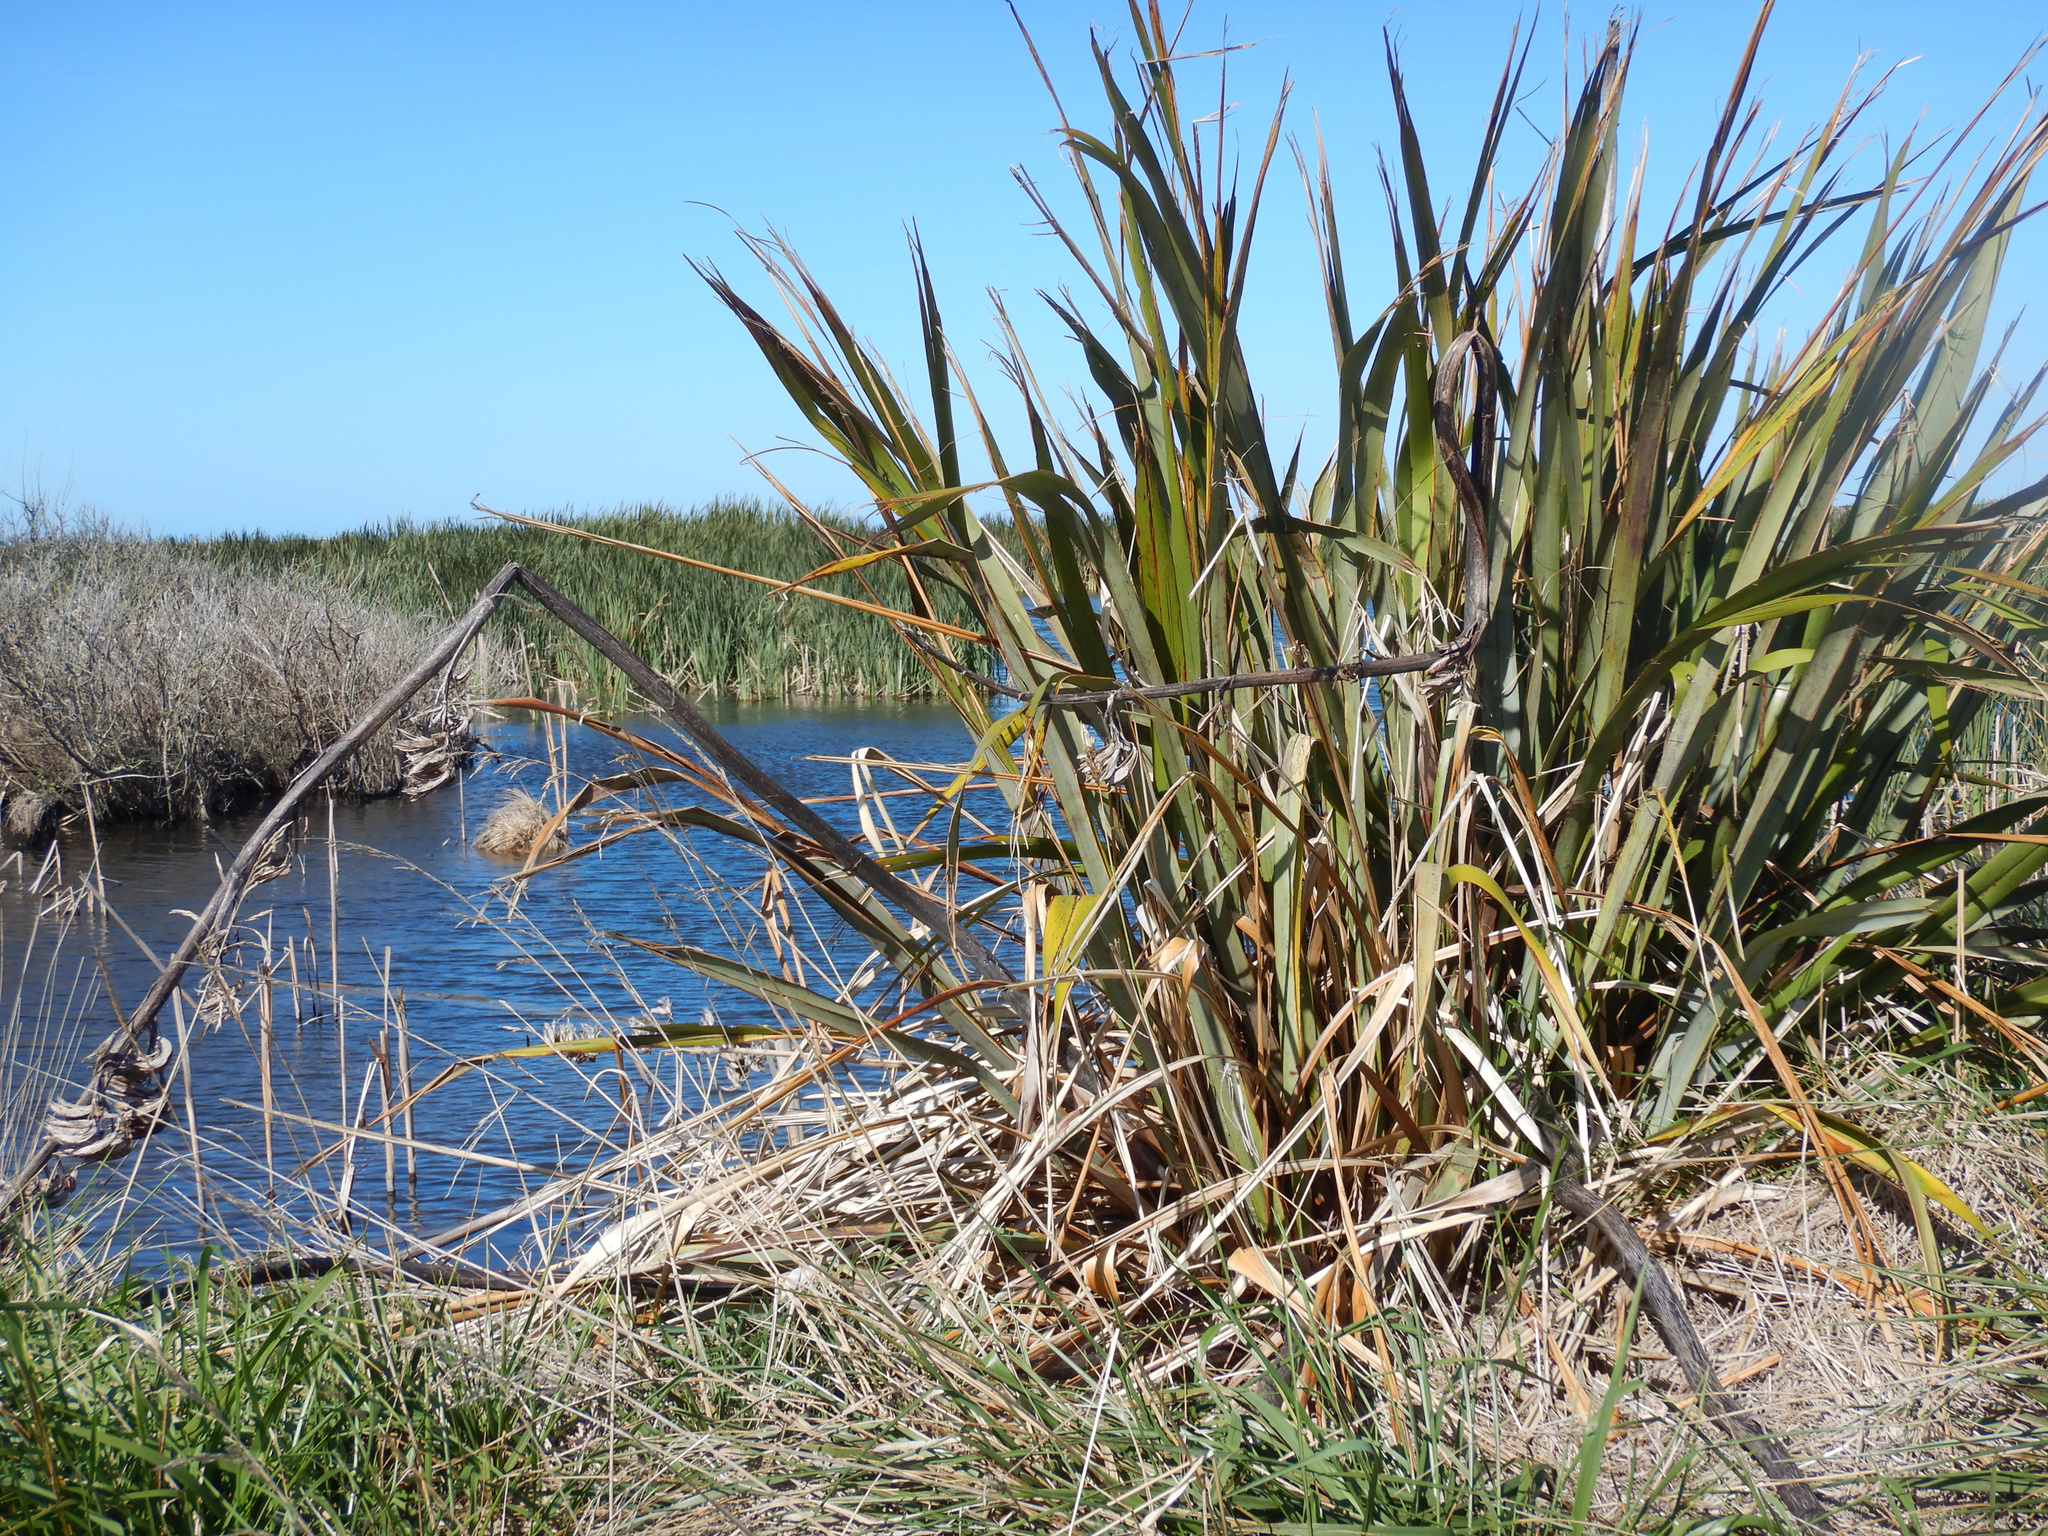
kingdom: Plantae
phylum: Tracheophyta
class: Liliopsida
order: Asparagales
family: Asphodelaceae
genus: Phormium
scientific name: Phormium tenax
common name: New zealand flax
